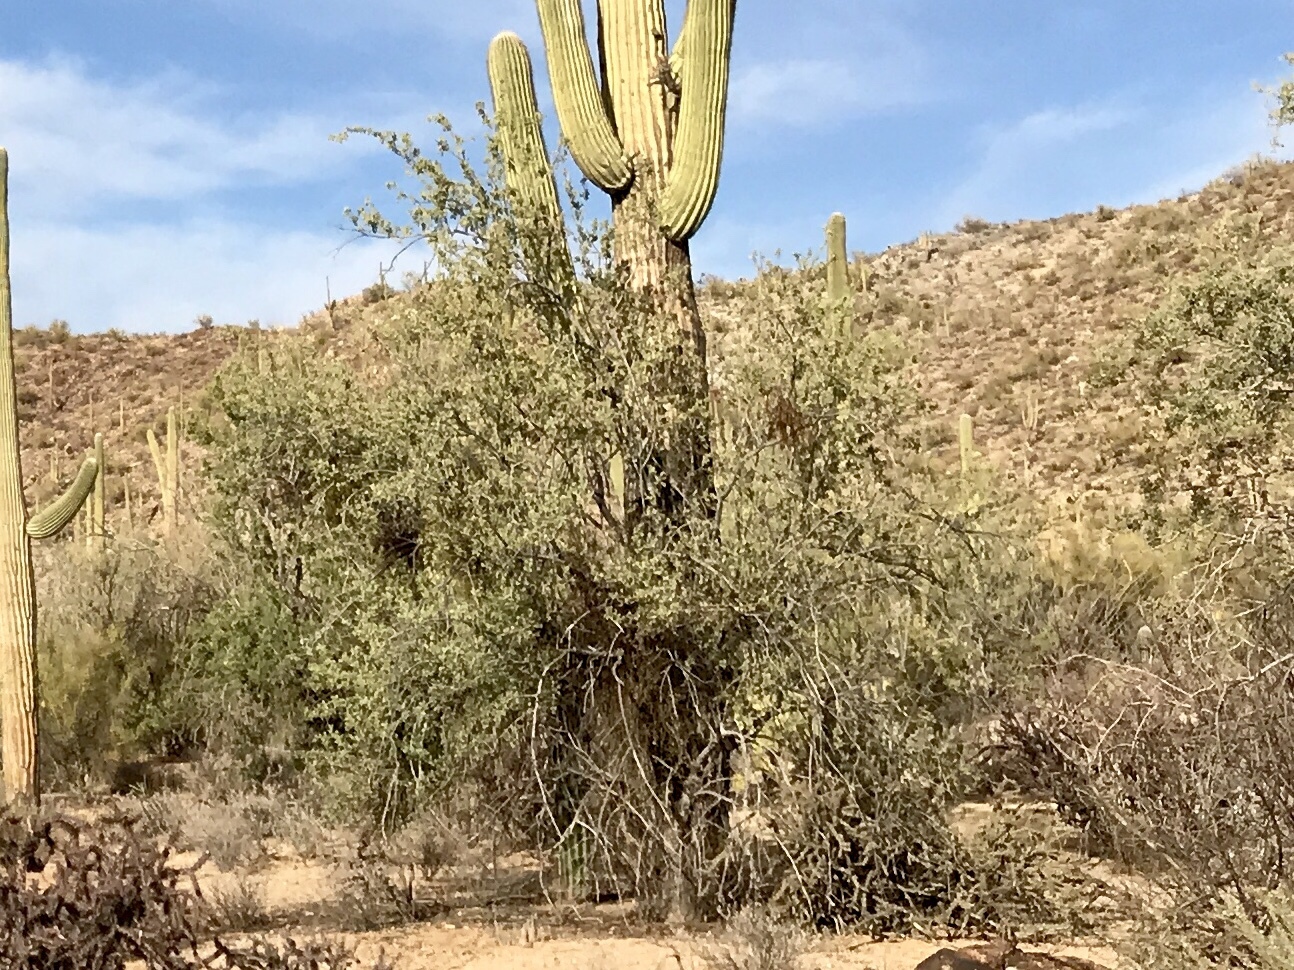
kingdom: Plantae
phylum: Tracheophyta
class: Magnoliopsida
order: Fabales
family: Fabaceae
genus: Olneya
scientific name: Olneya tesota
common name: Desert ironwood
